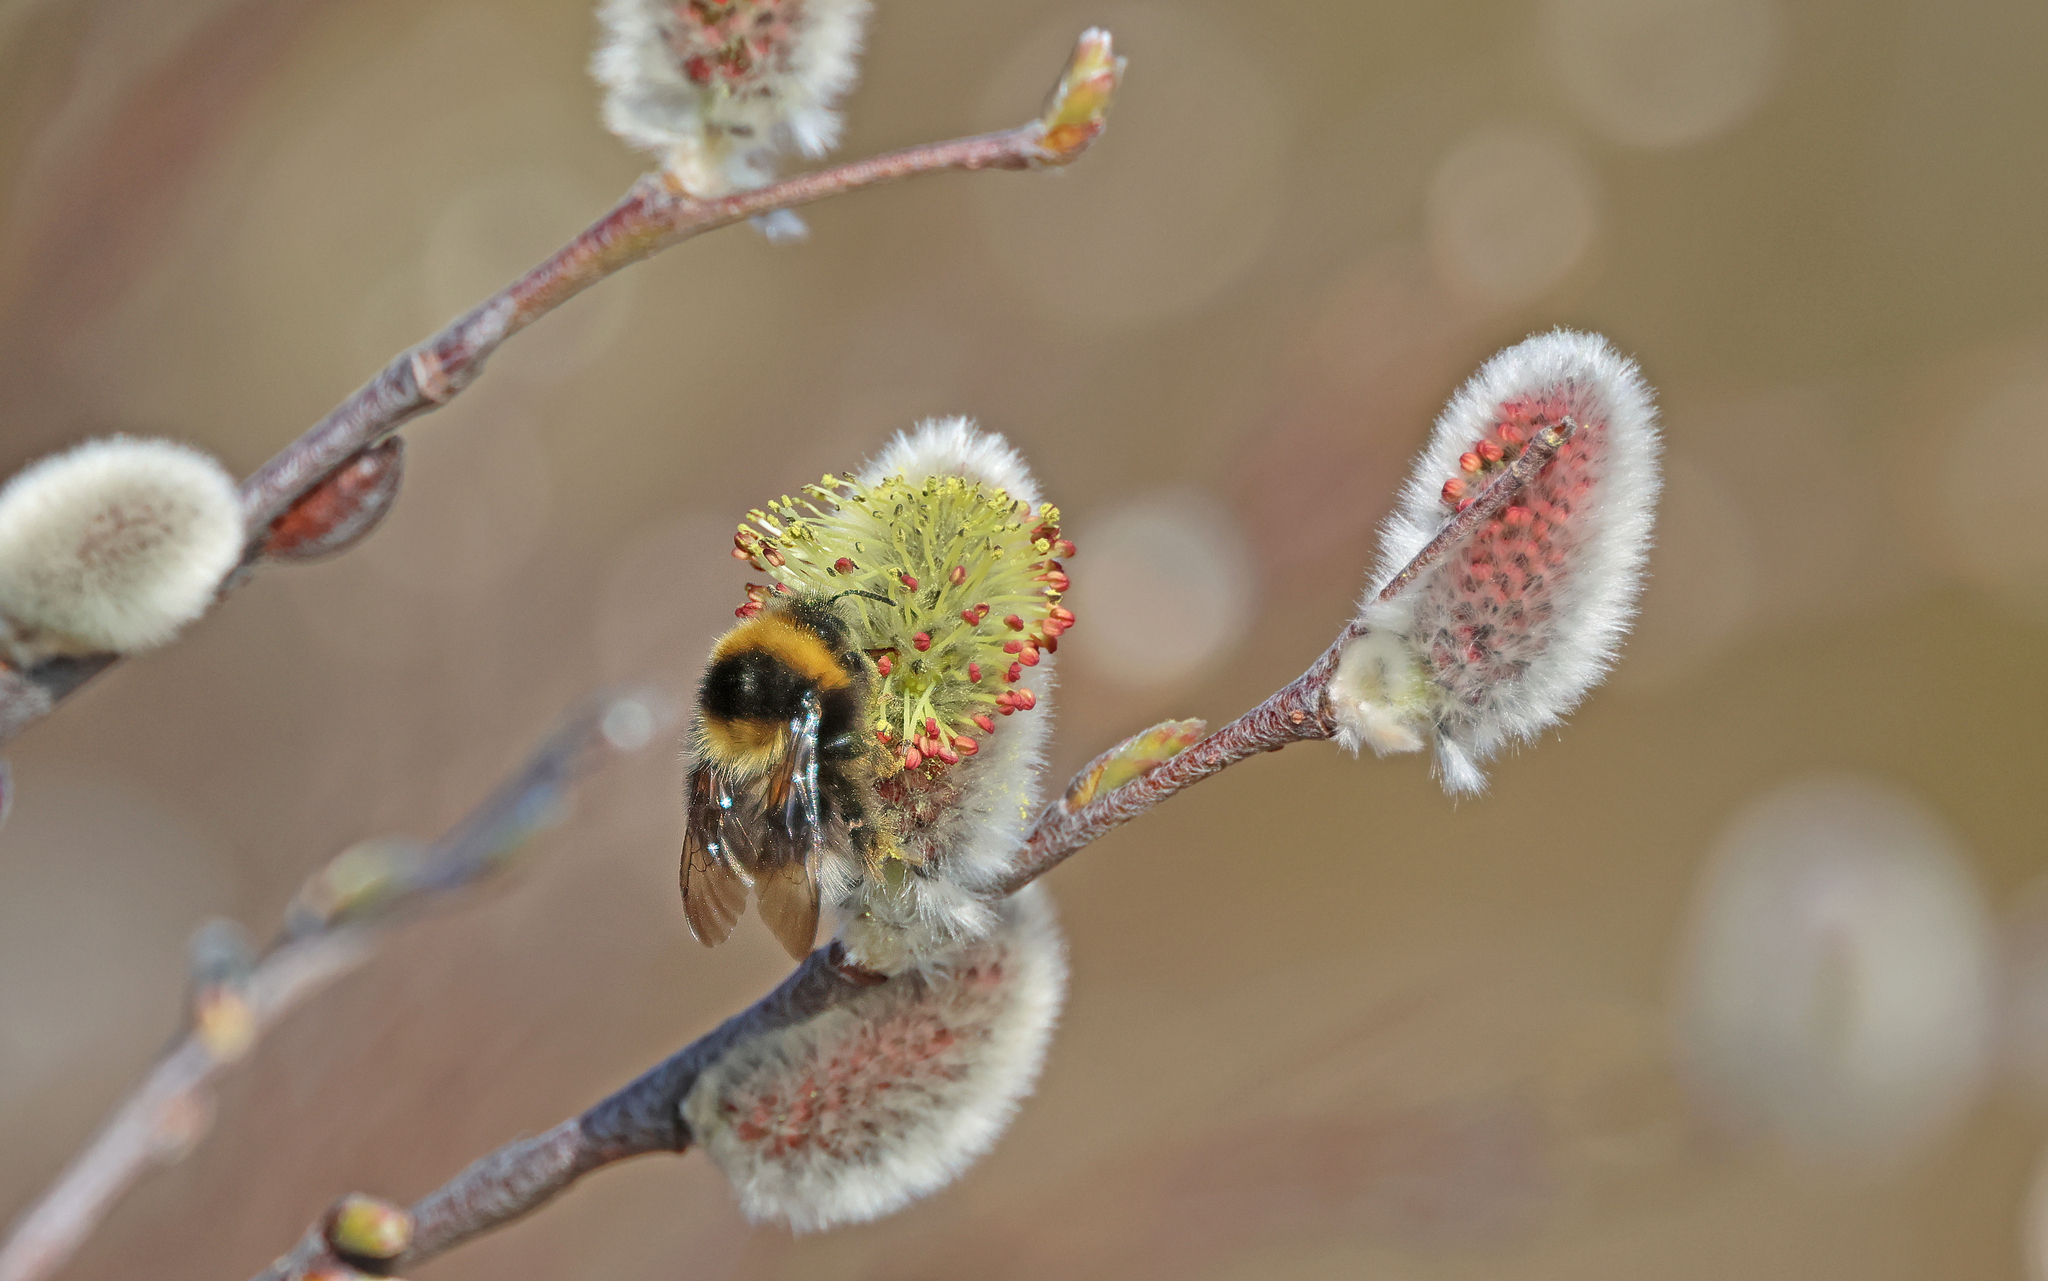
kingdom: Animalia
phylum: Arthropoda
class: Insecta
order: Hymenoptera
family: Apidae
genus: Bombus
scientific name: Bombus jonellus
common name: Heath humble-bee
